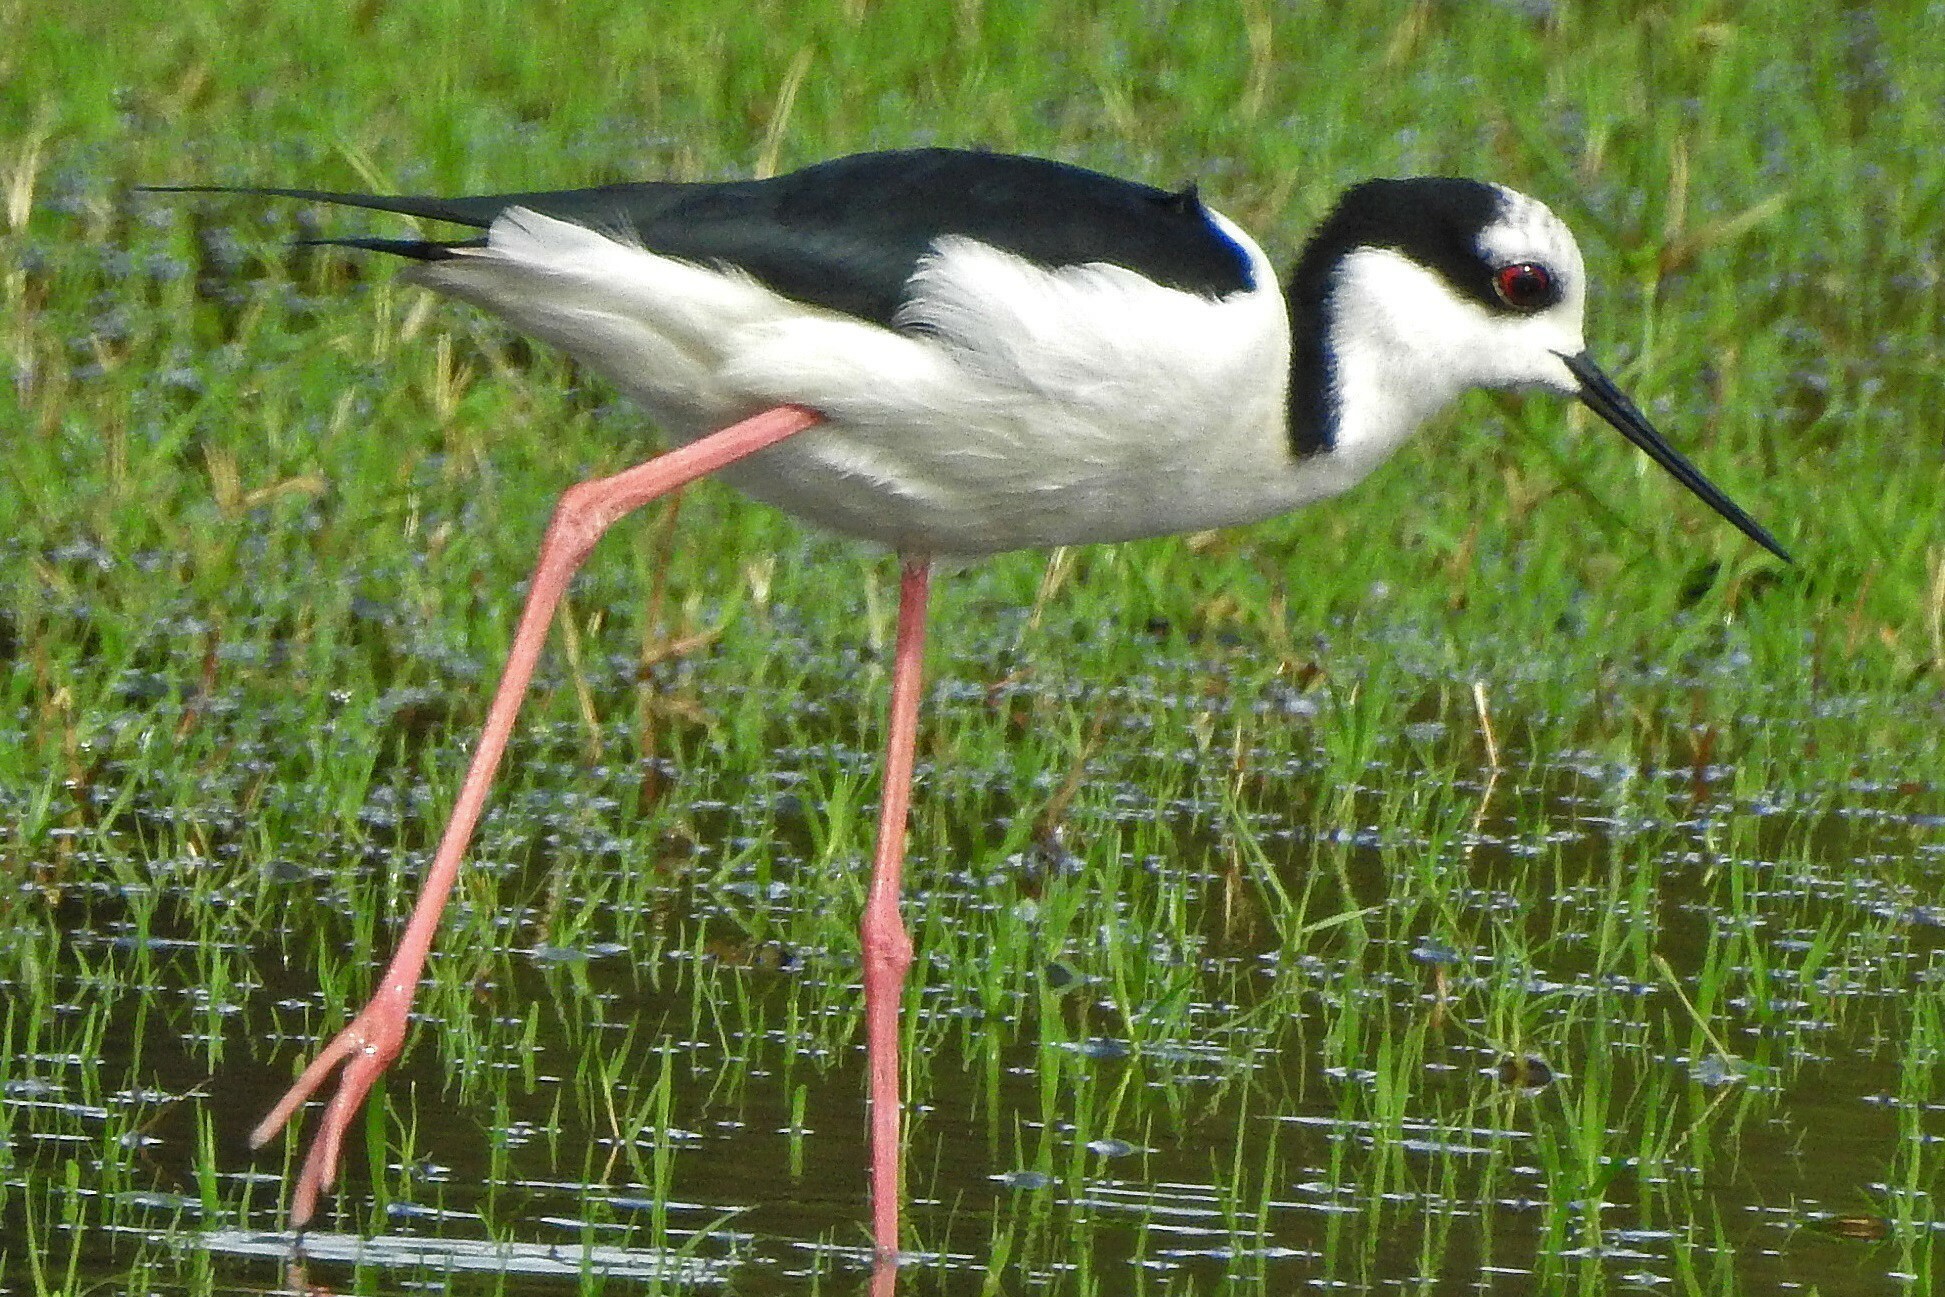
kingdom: Animalia
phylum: Chordata
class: Aves
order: Charadriiformes
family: Recurvirostridae
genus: Himantopus
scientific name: Himantopus mexicanus
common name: Black-necked stilt
